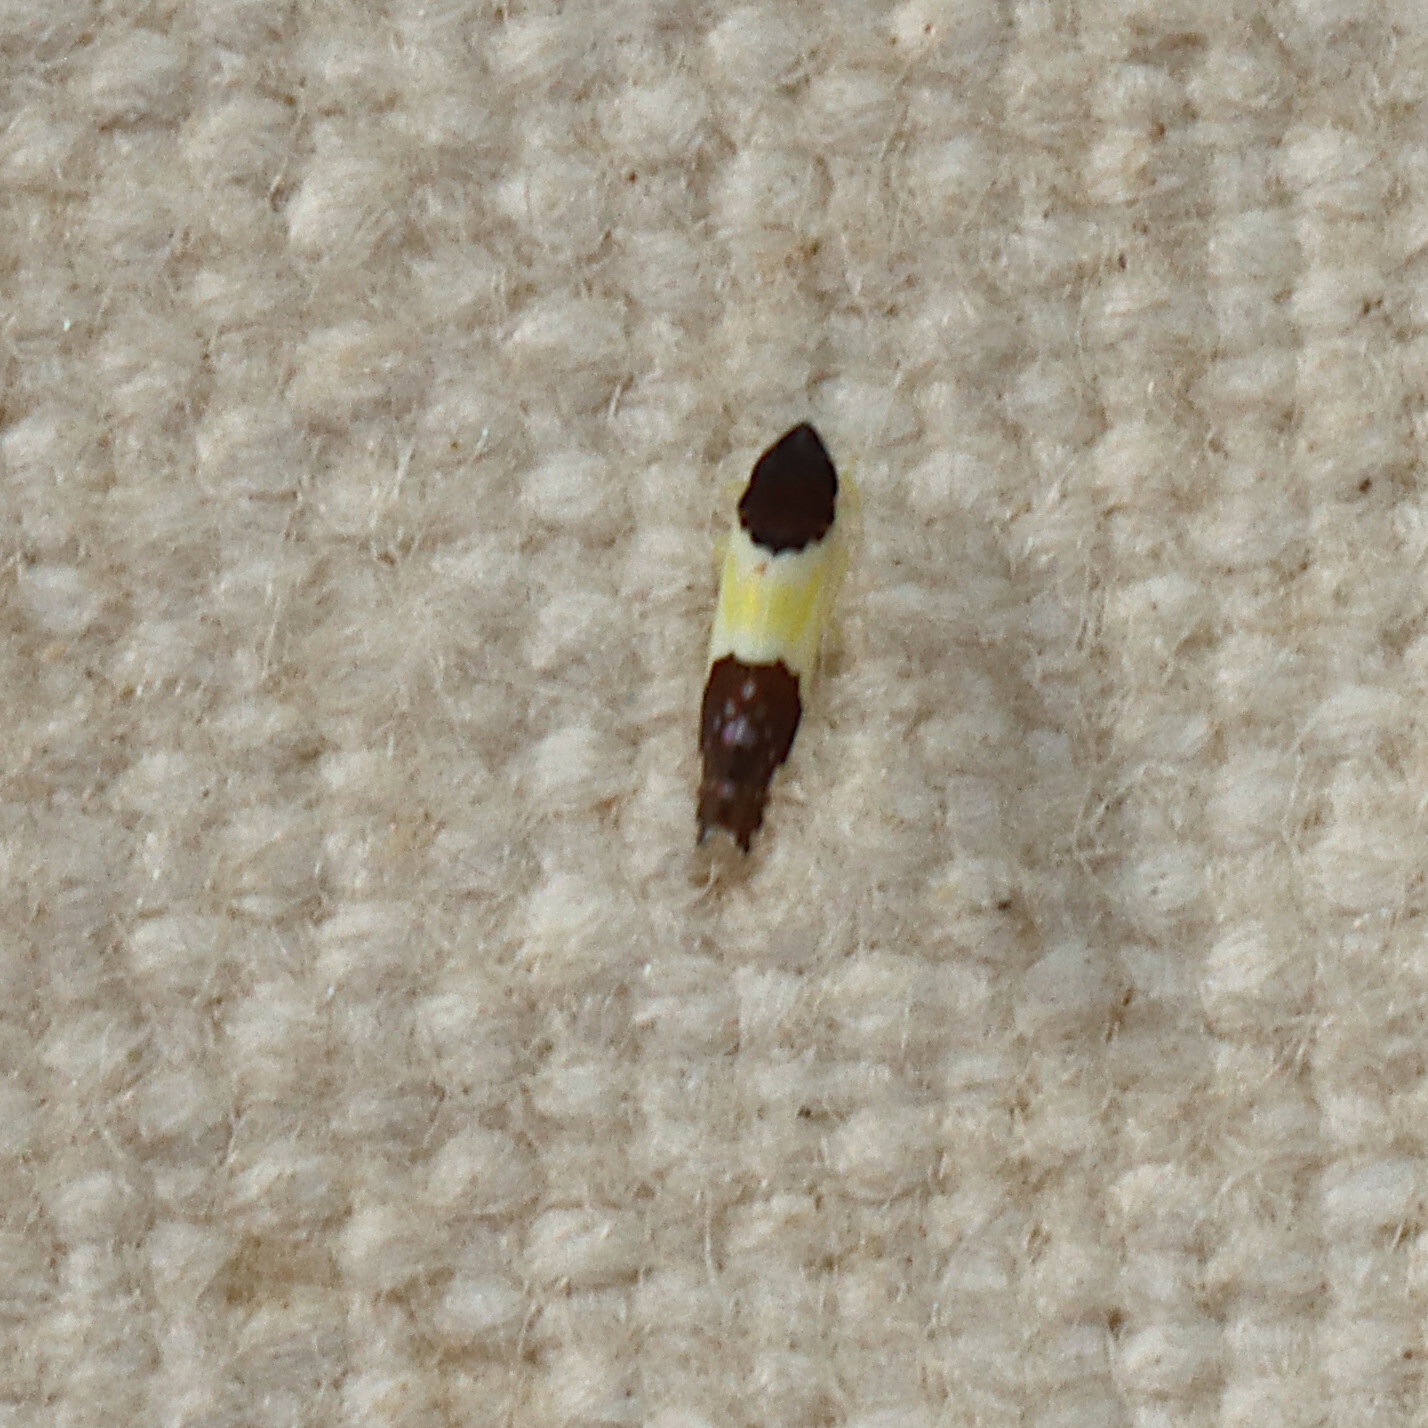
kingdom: Animalia
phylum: Arthropoda
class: Insecta
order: Hemiptera
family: Cicadellidae
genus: Henribautia
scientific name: Henribautia nigricephala
